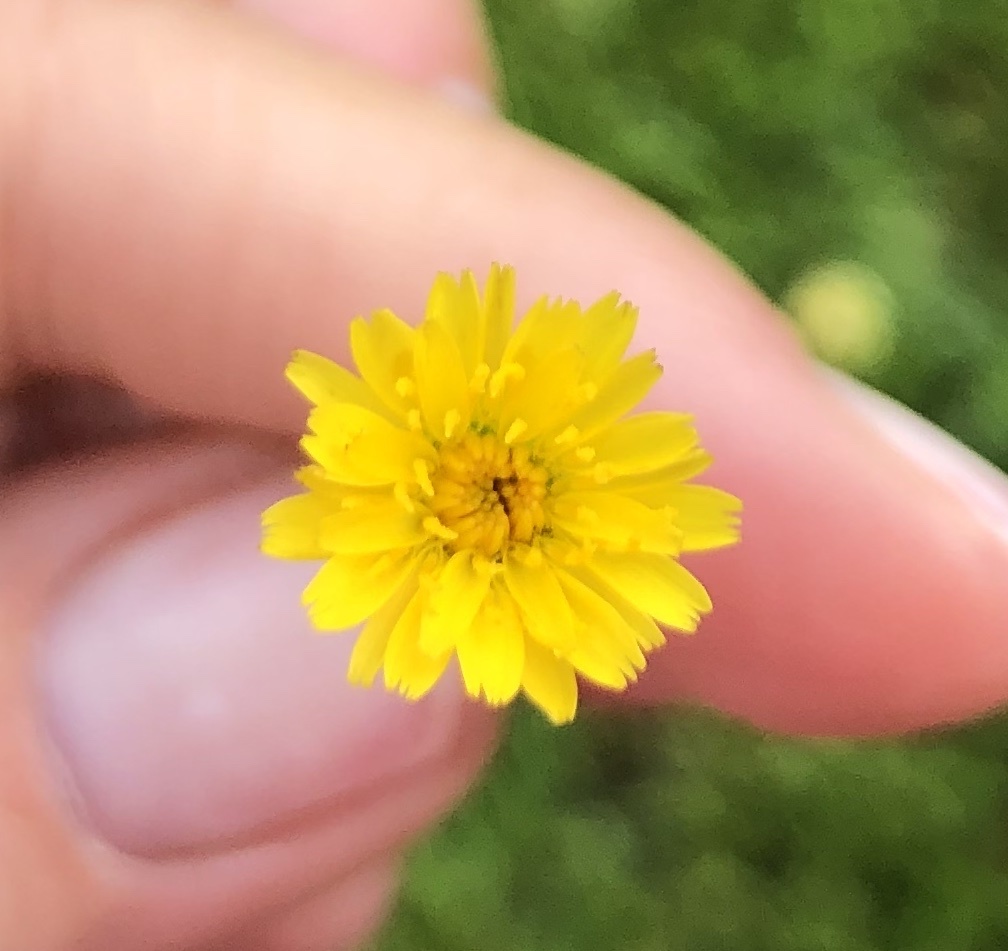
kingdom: Plantae
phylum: Tracheophyta
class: Magnoliopsida
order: Asterales
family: Asteraceae
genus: Hypochaeris
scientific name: Hypochaeris glabra
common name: Smooth catsear
